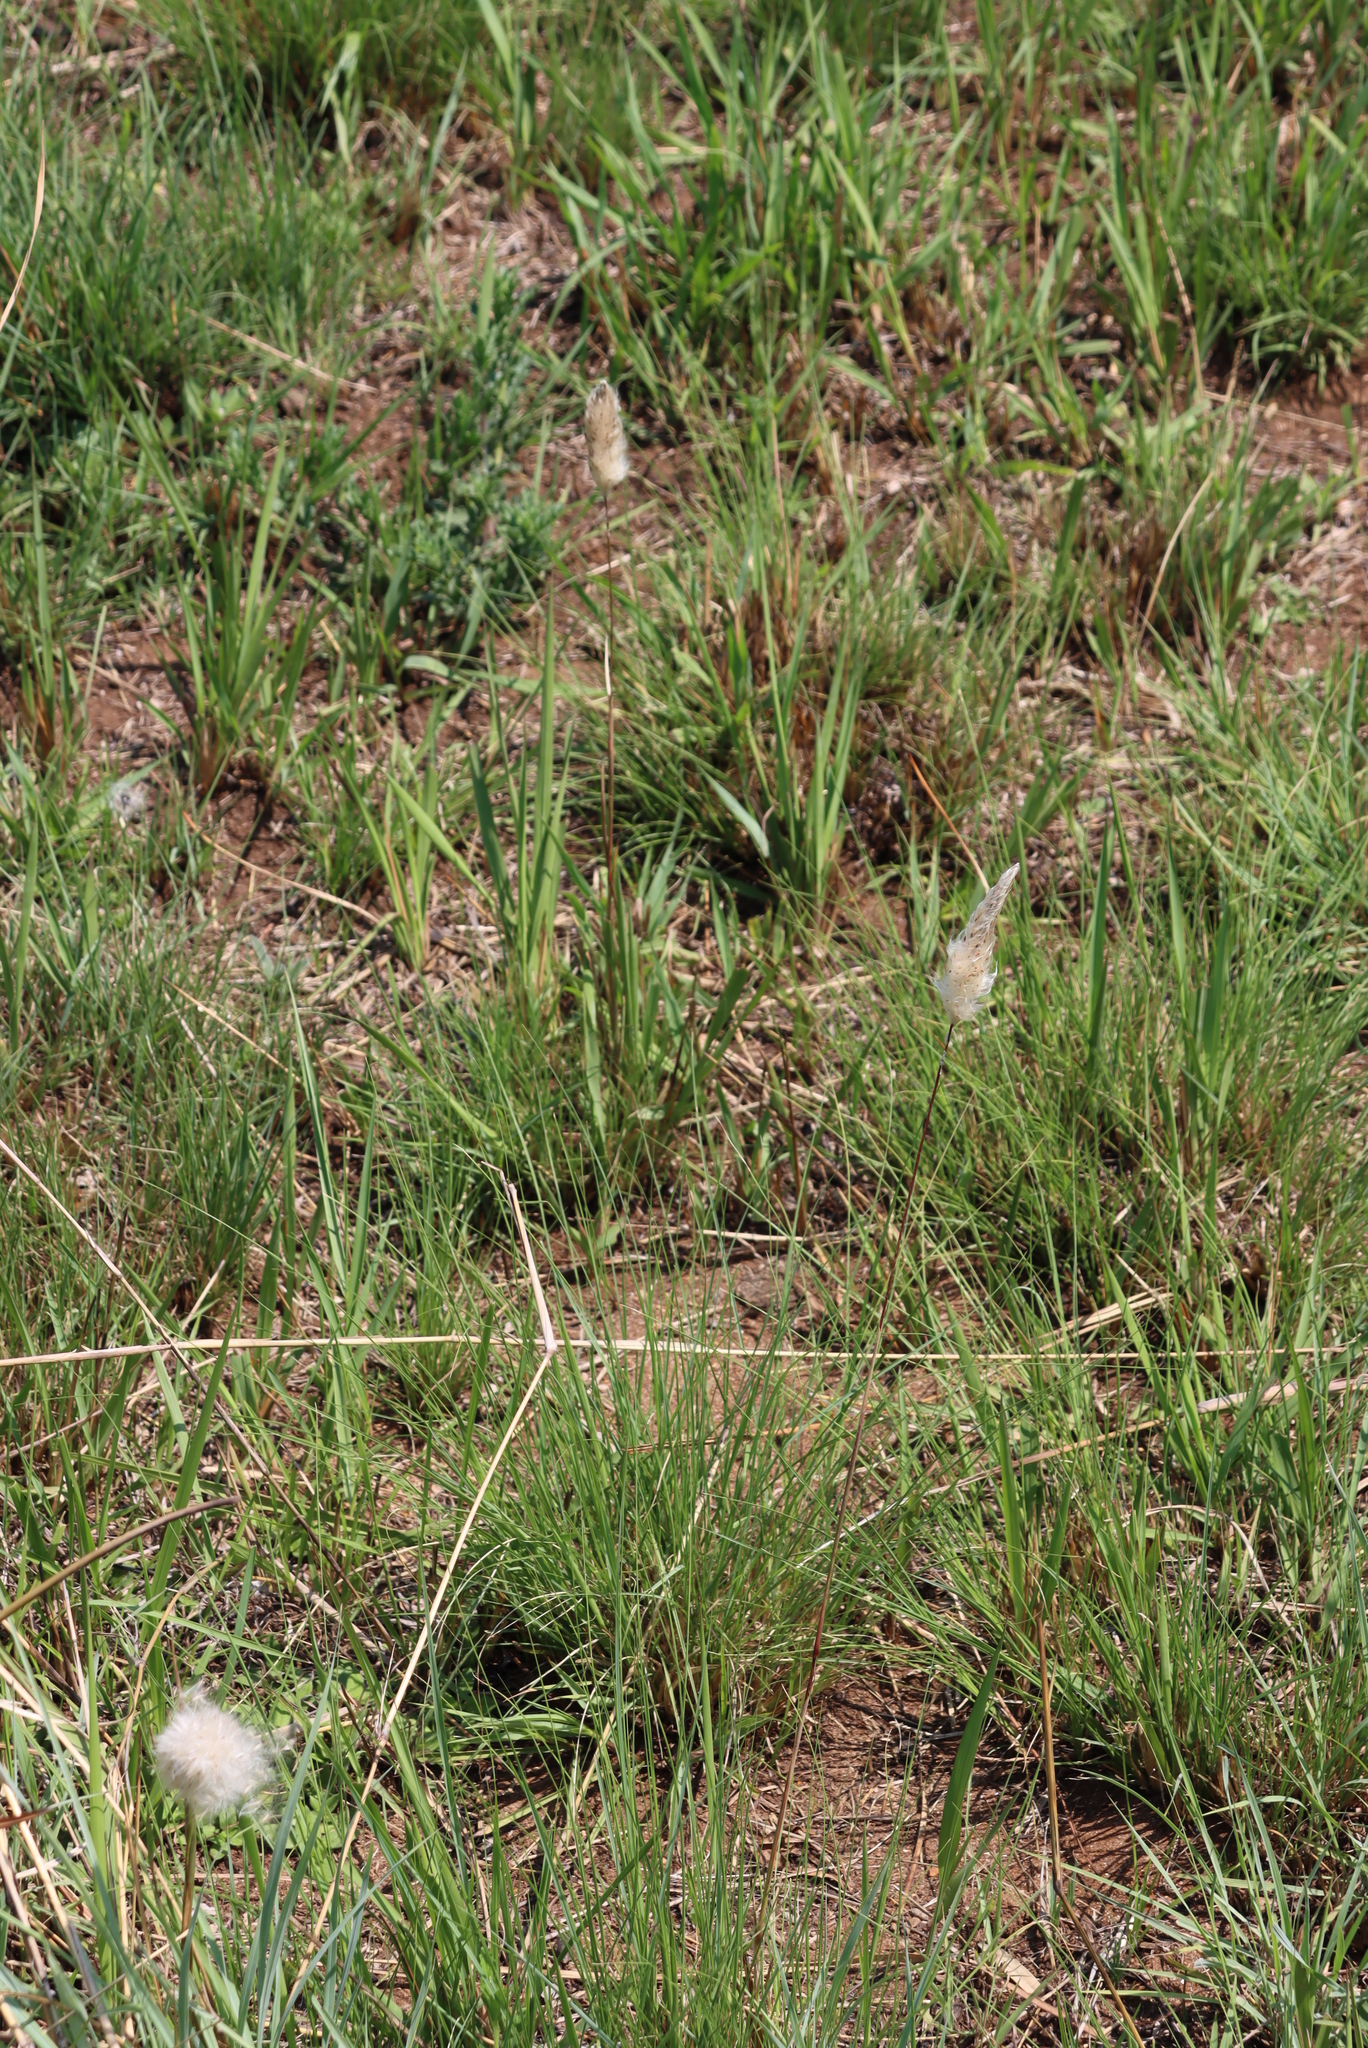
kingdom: Plantae
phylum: Tracheophyta
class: Liliopsida
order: Poales
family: Poaceae
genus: Imperata
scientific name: Imperata cylindrica
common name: Cogongrass
